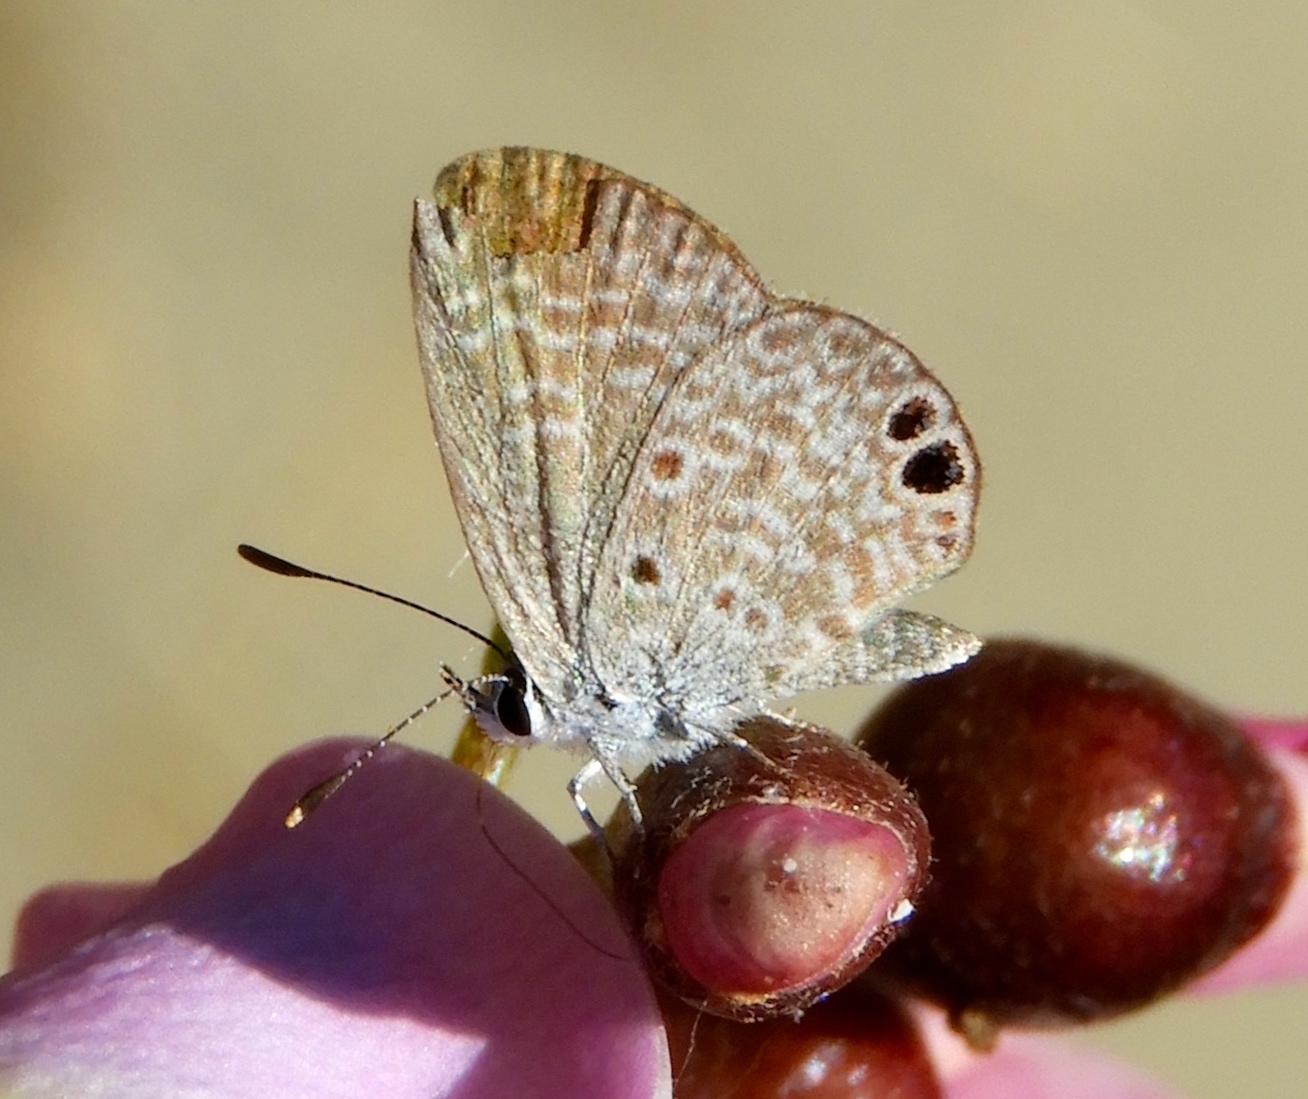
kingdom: Animalia
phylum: Arthropoda
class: Insecta
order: Lepidoptera
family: Lycaenidae
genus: Echinargus
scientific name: Echinargus isola
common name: Reakirt's blue
